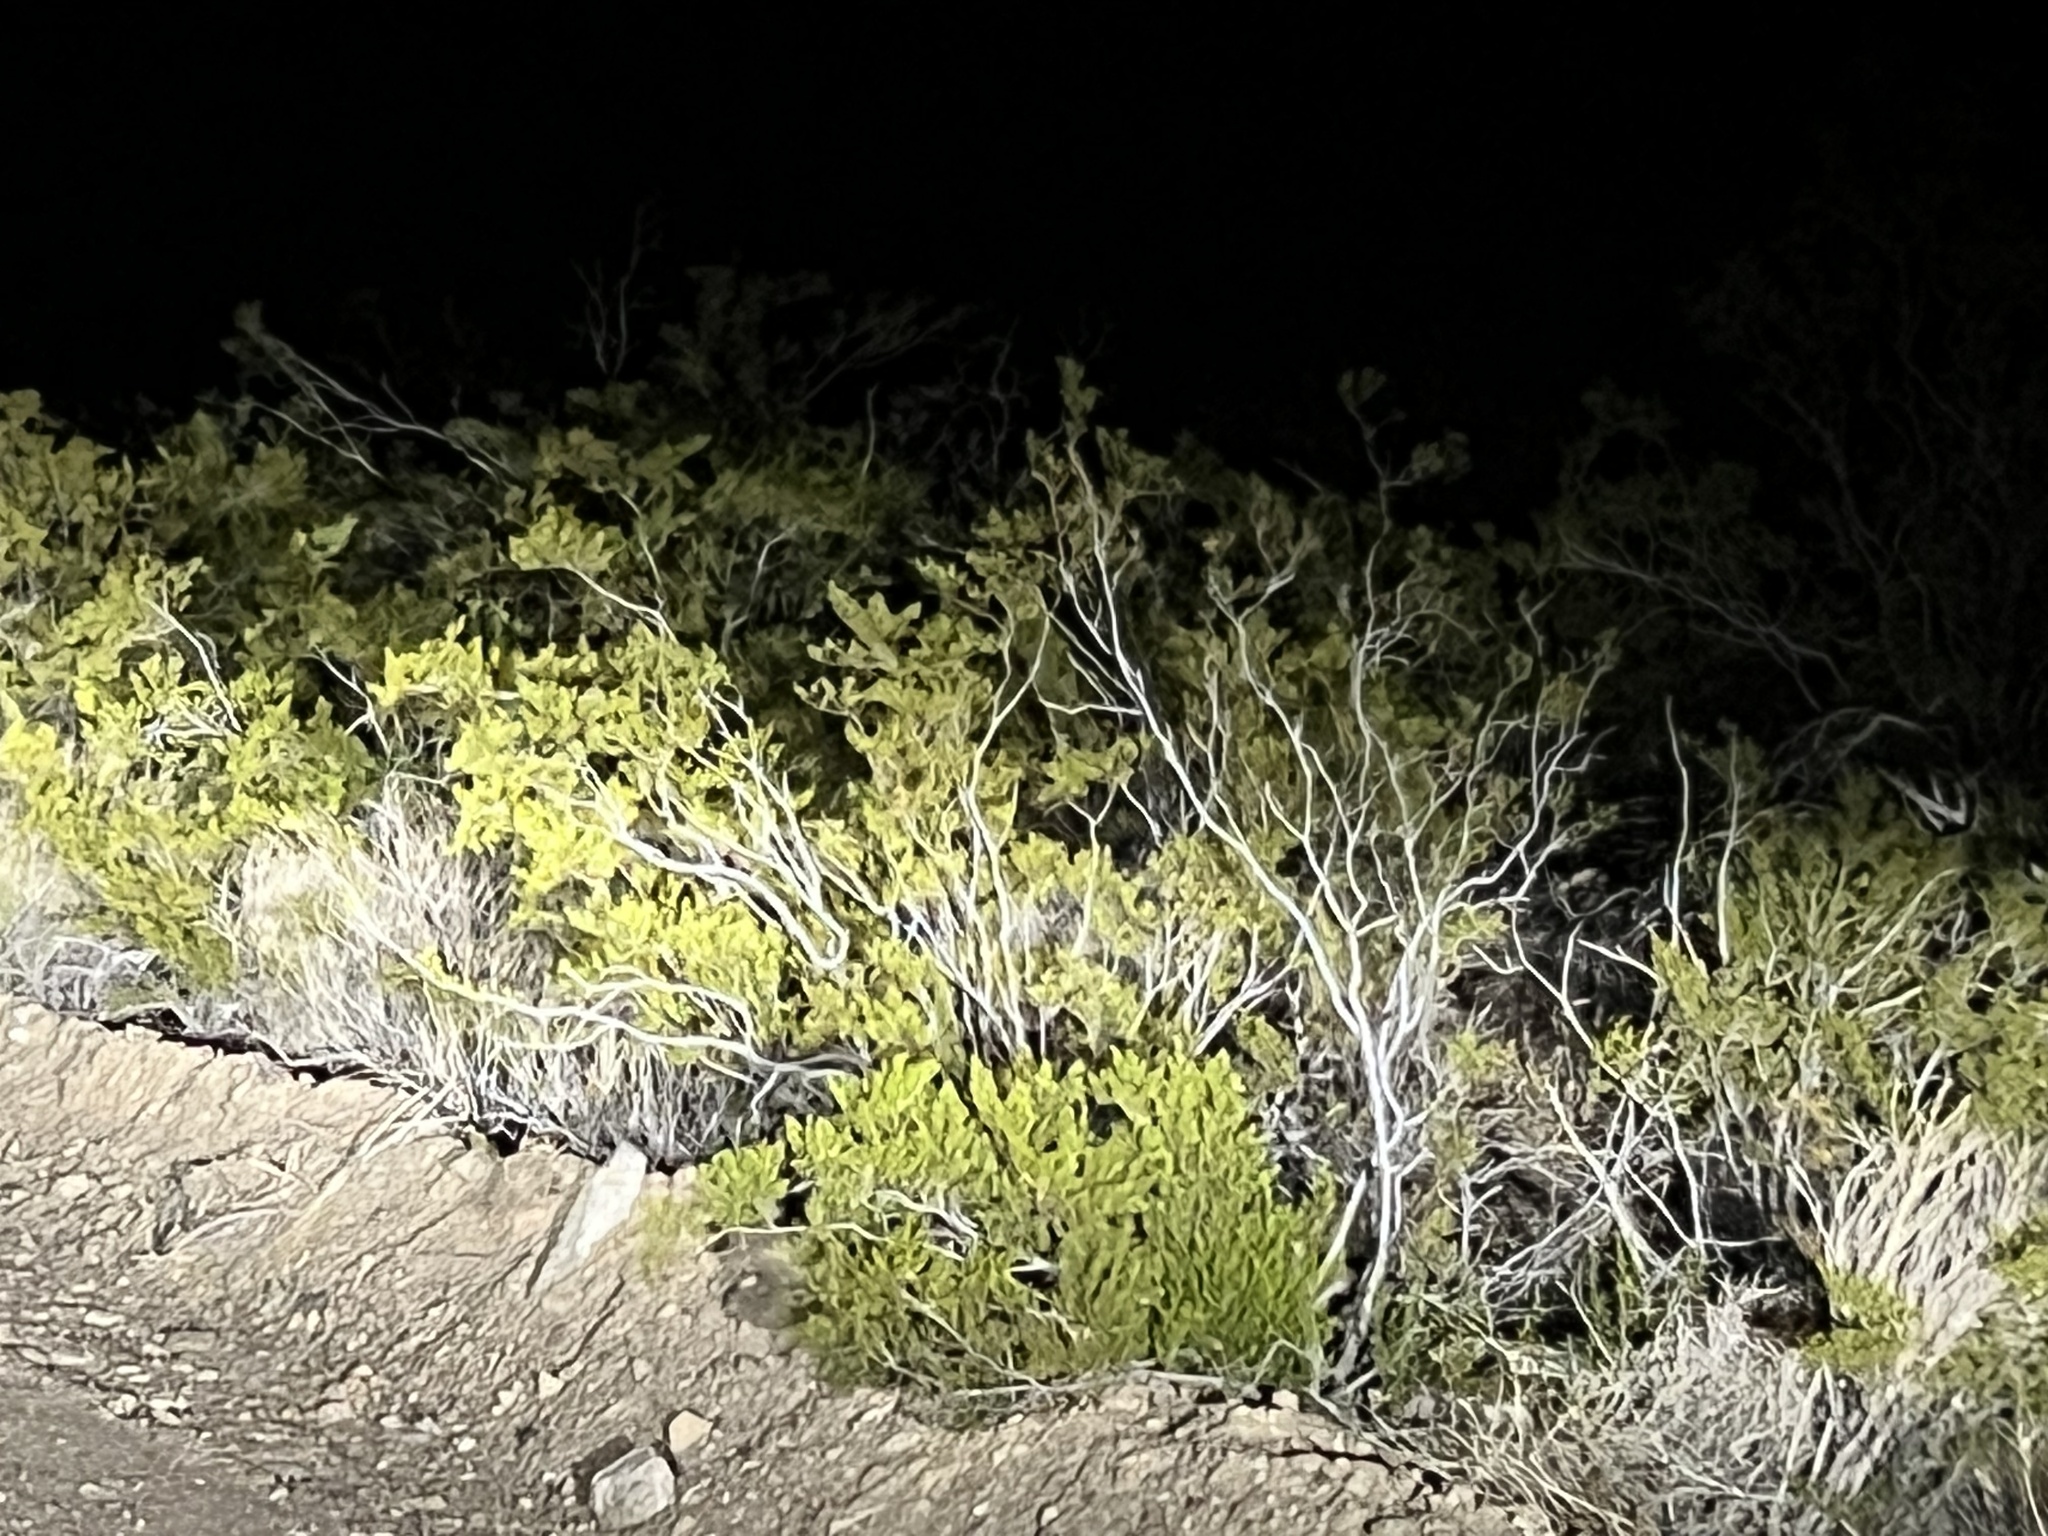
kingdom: Plantae
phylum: Tracheophyta
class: Magnoliopsida
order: Zygophyllales
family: Zygophyllaceae
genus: Larrea
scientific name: Larrea tridentata
